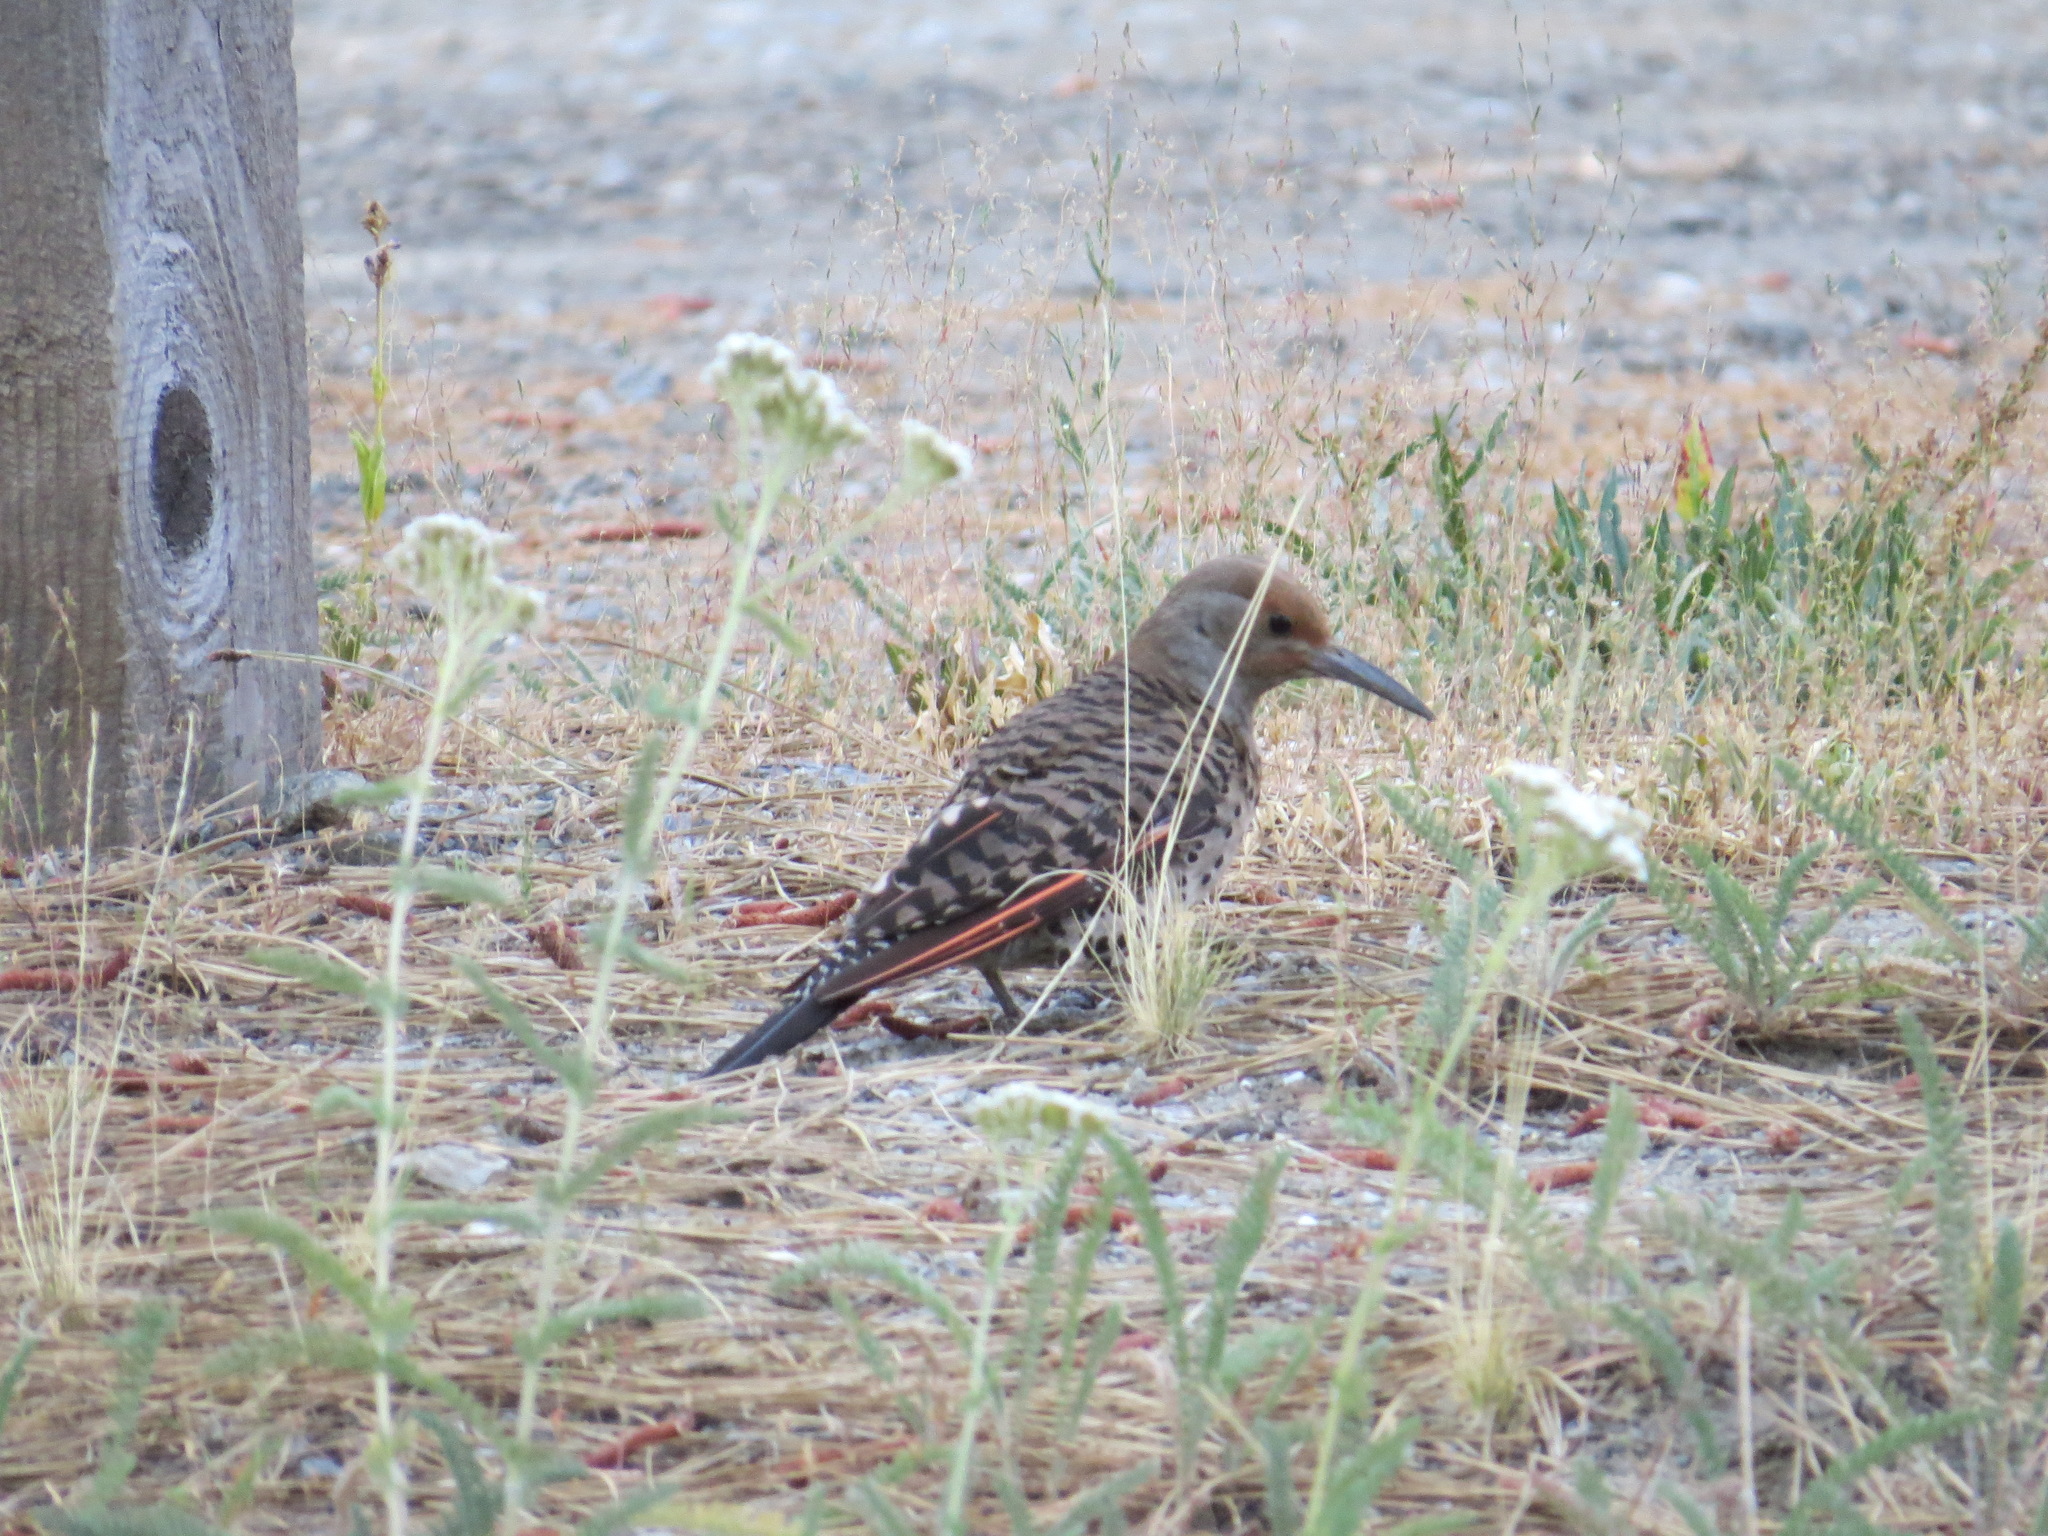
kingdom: Animalia
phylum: Chordata
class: Aves
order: Piciformes
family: Picidae
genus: Colaptes
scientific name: Colaptes auratus
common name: Northern flicker
